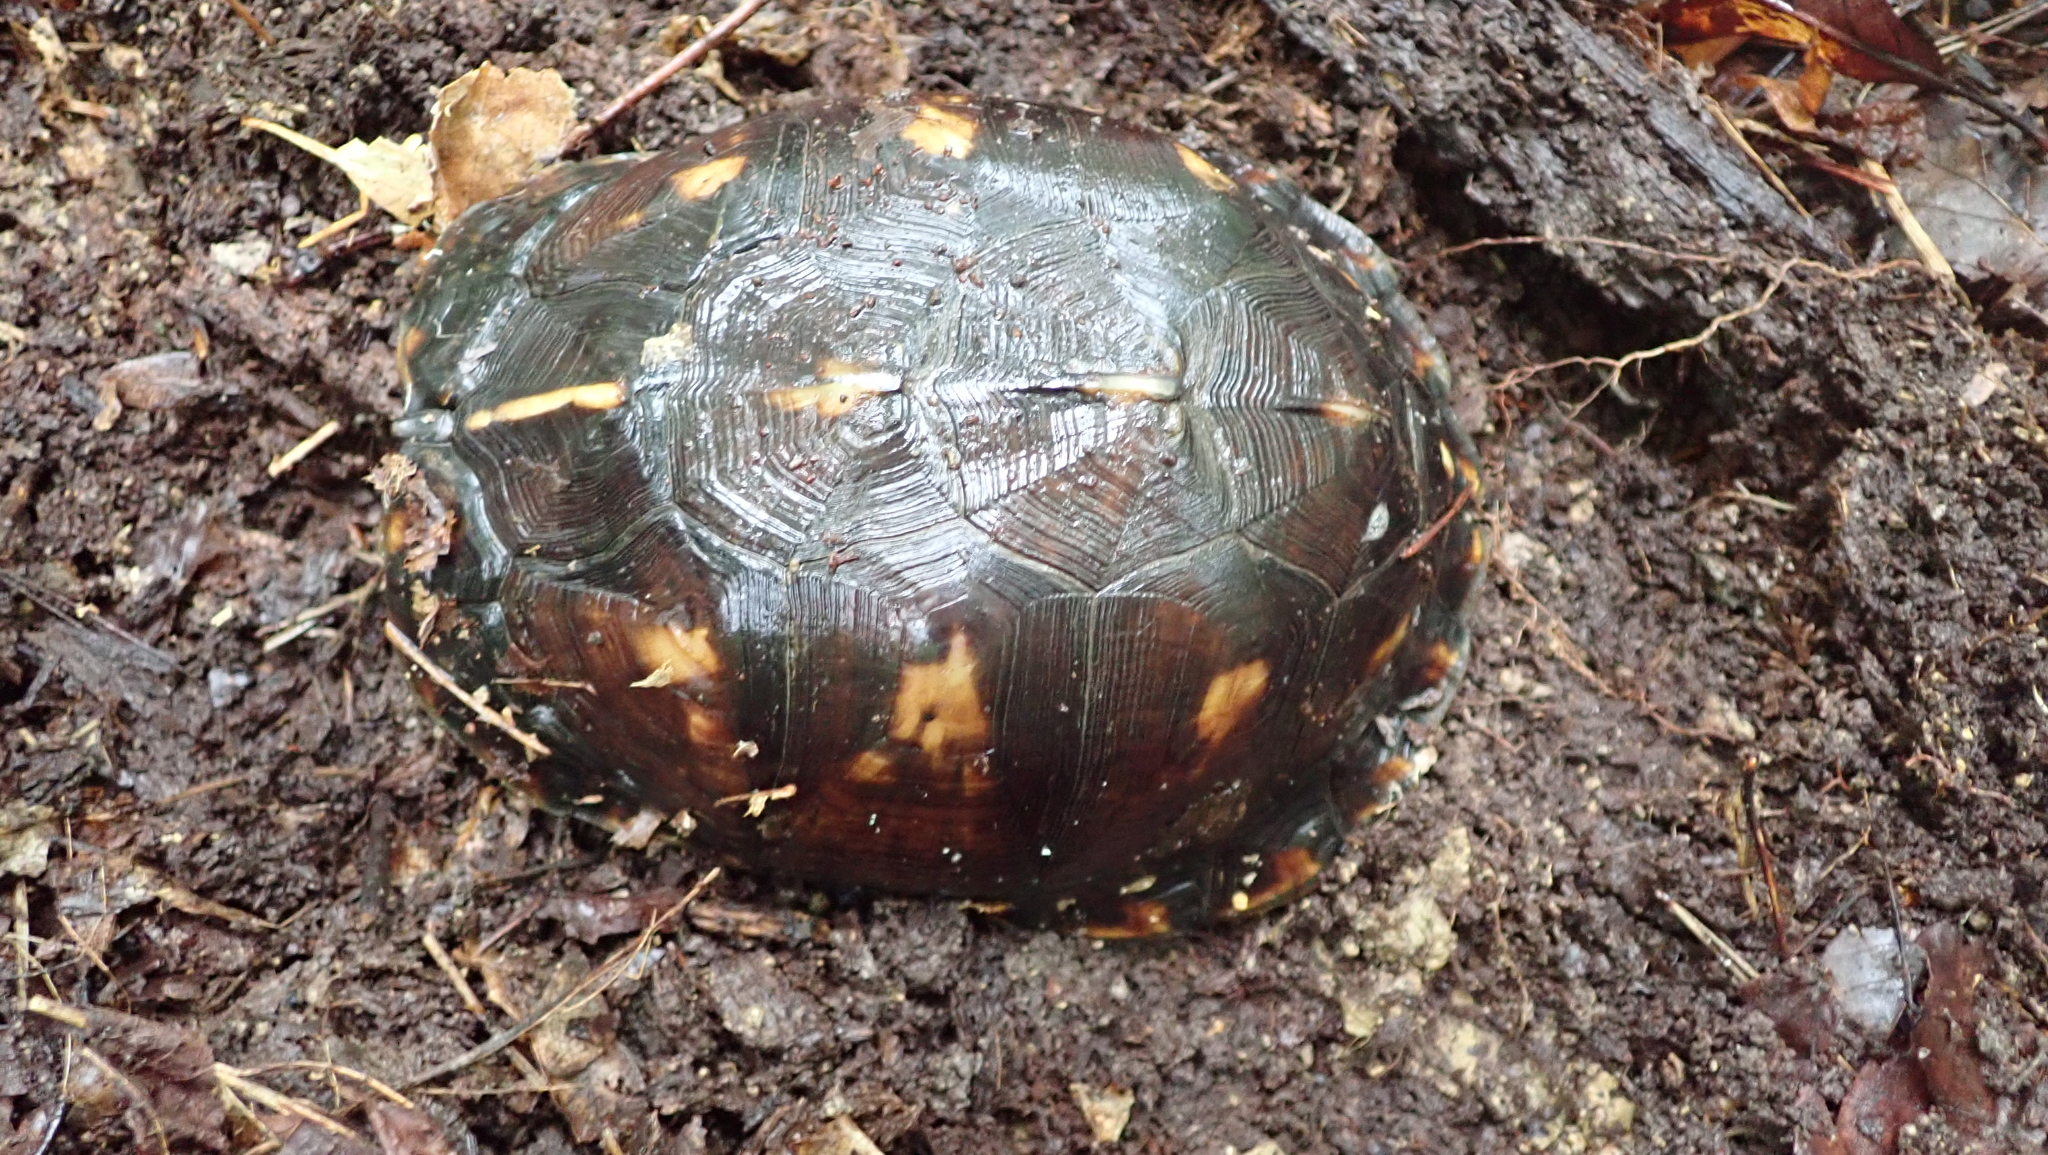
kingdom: Animalia
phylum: Chordata
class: Testudines
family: Emydidae
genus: Terrapene
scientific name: Terrapene carolina
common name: Common box turtle
